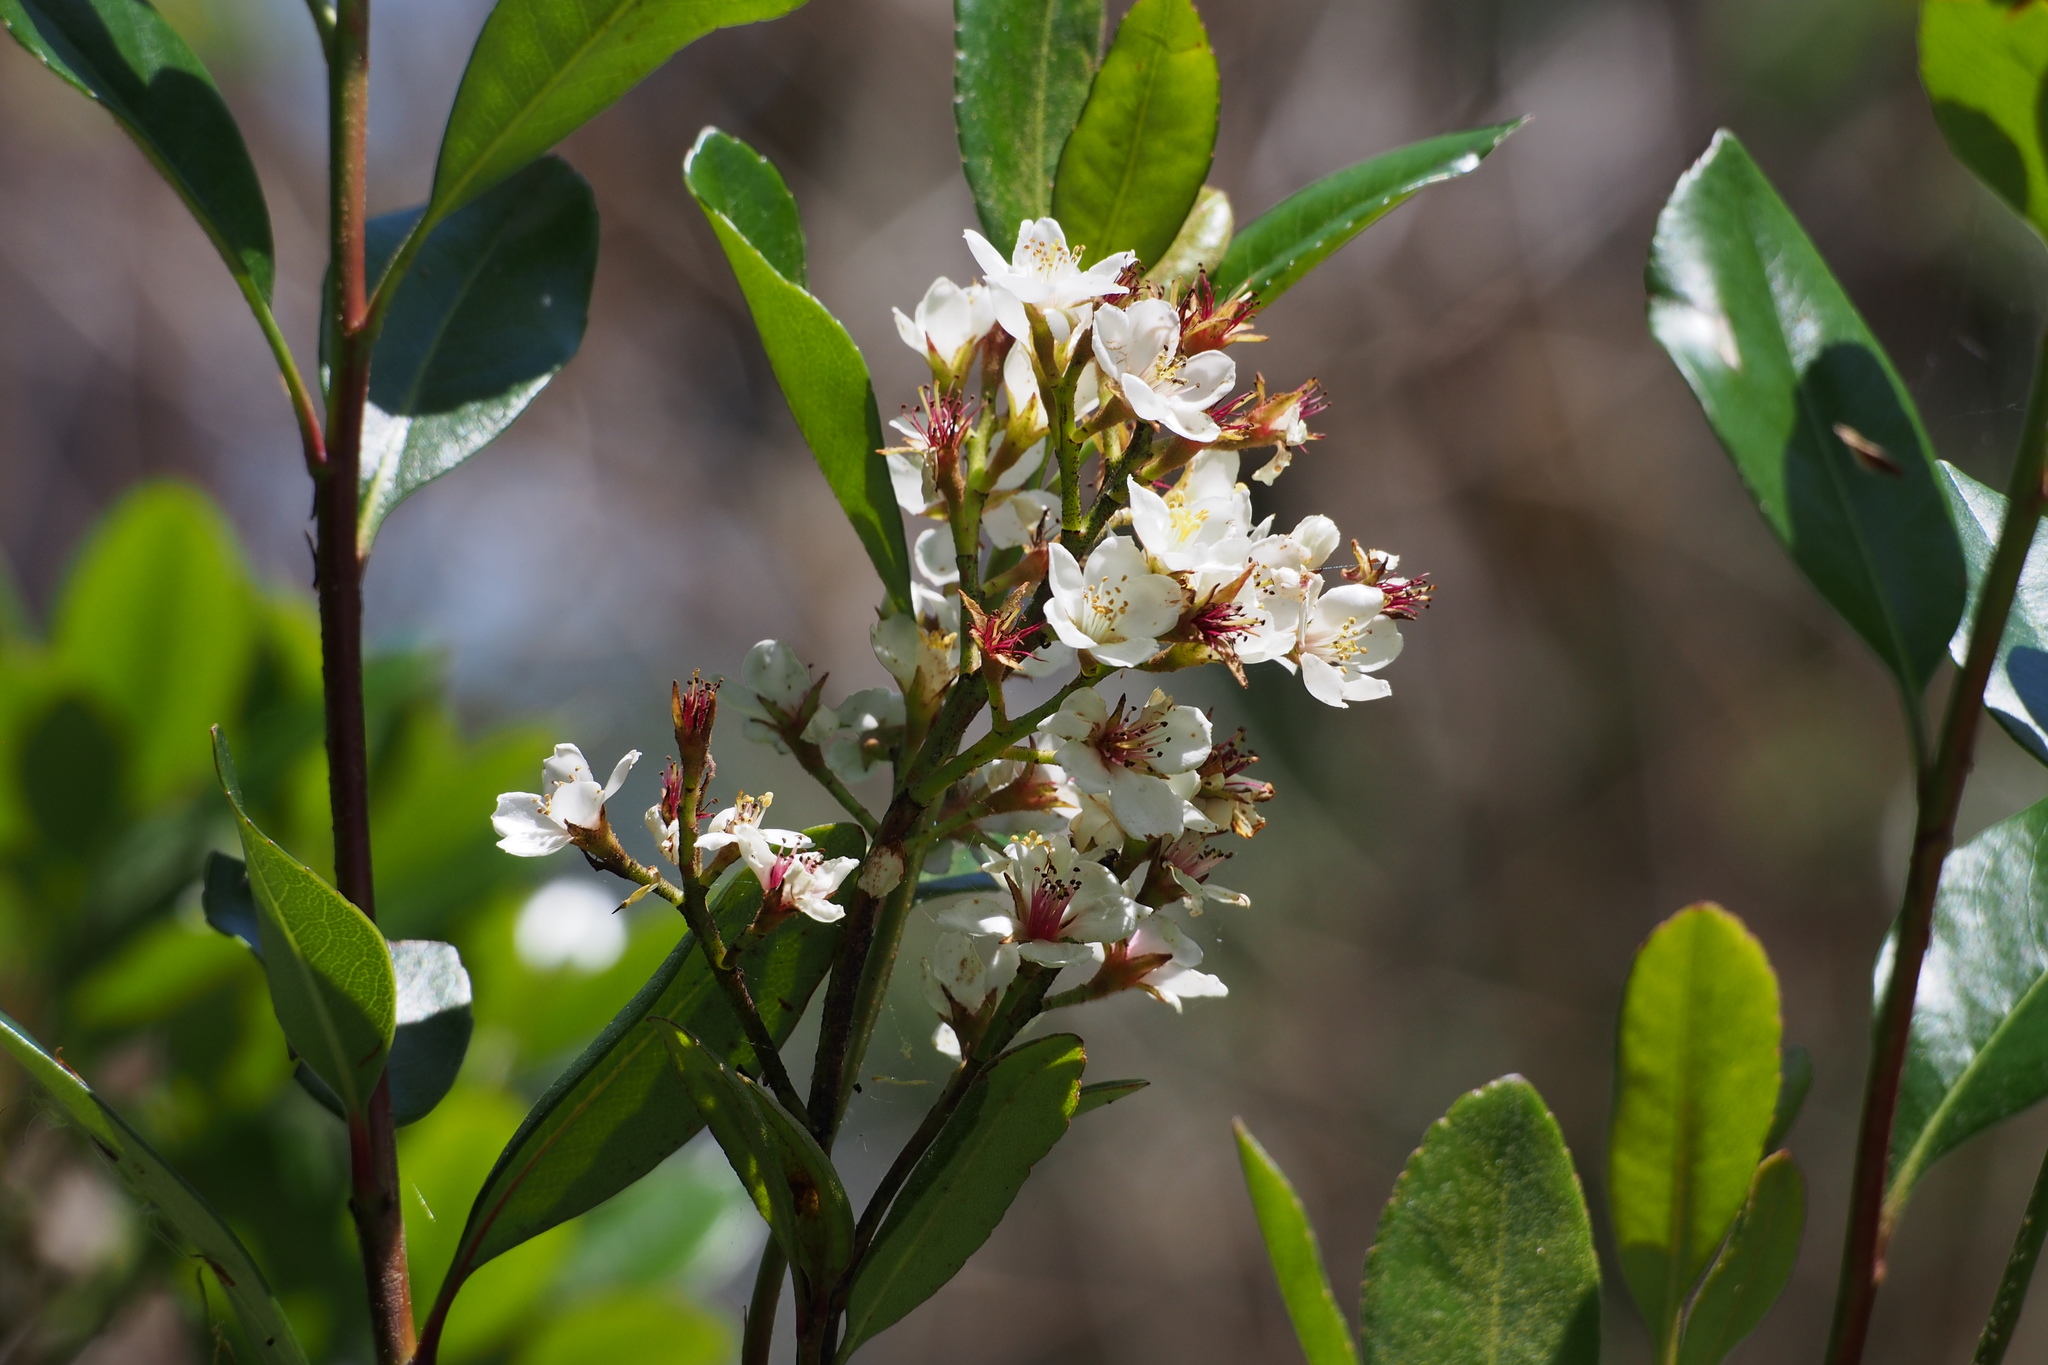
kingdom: Plantae
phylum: Tracheophyta
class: Magnoliopsida
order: Rosales
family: Rosaceae
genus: Rhaphiolepis
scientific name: Rhaphiolepis indica
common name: India-hawthorn
